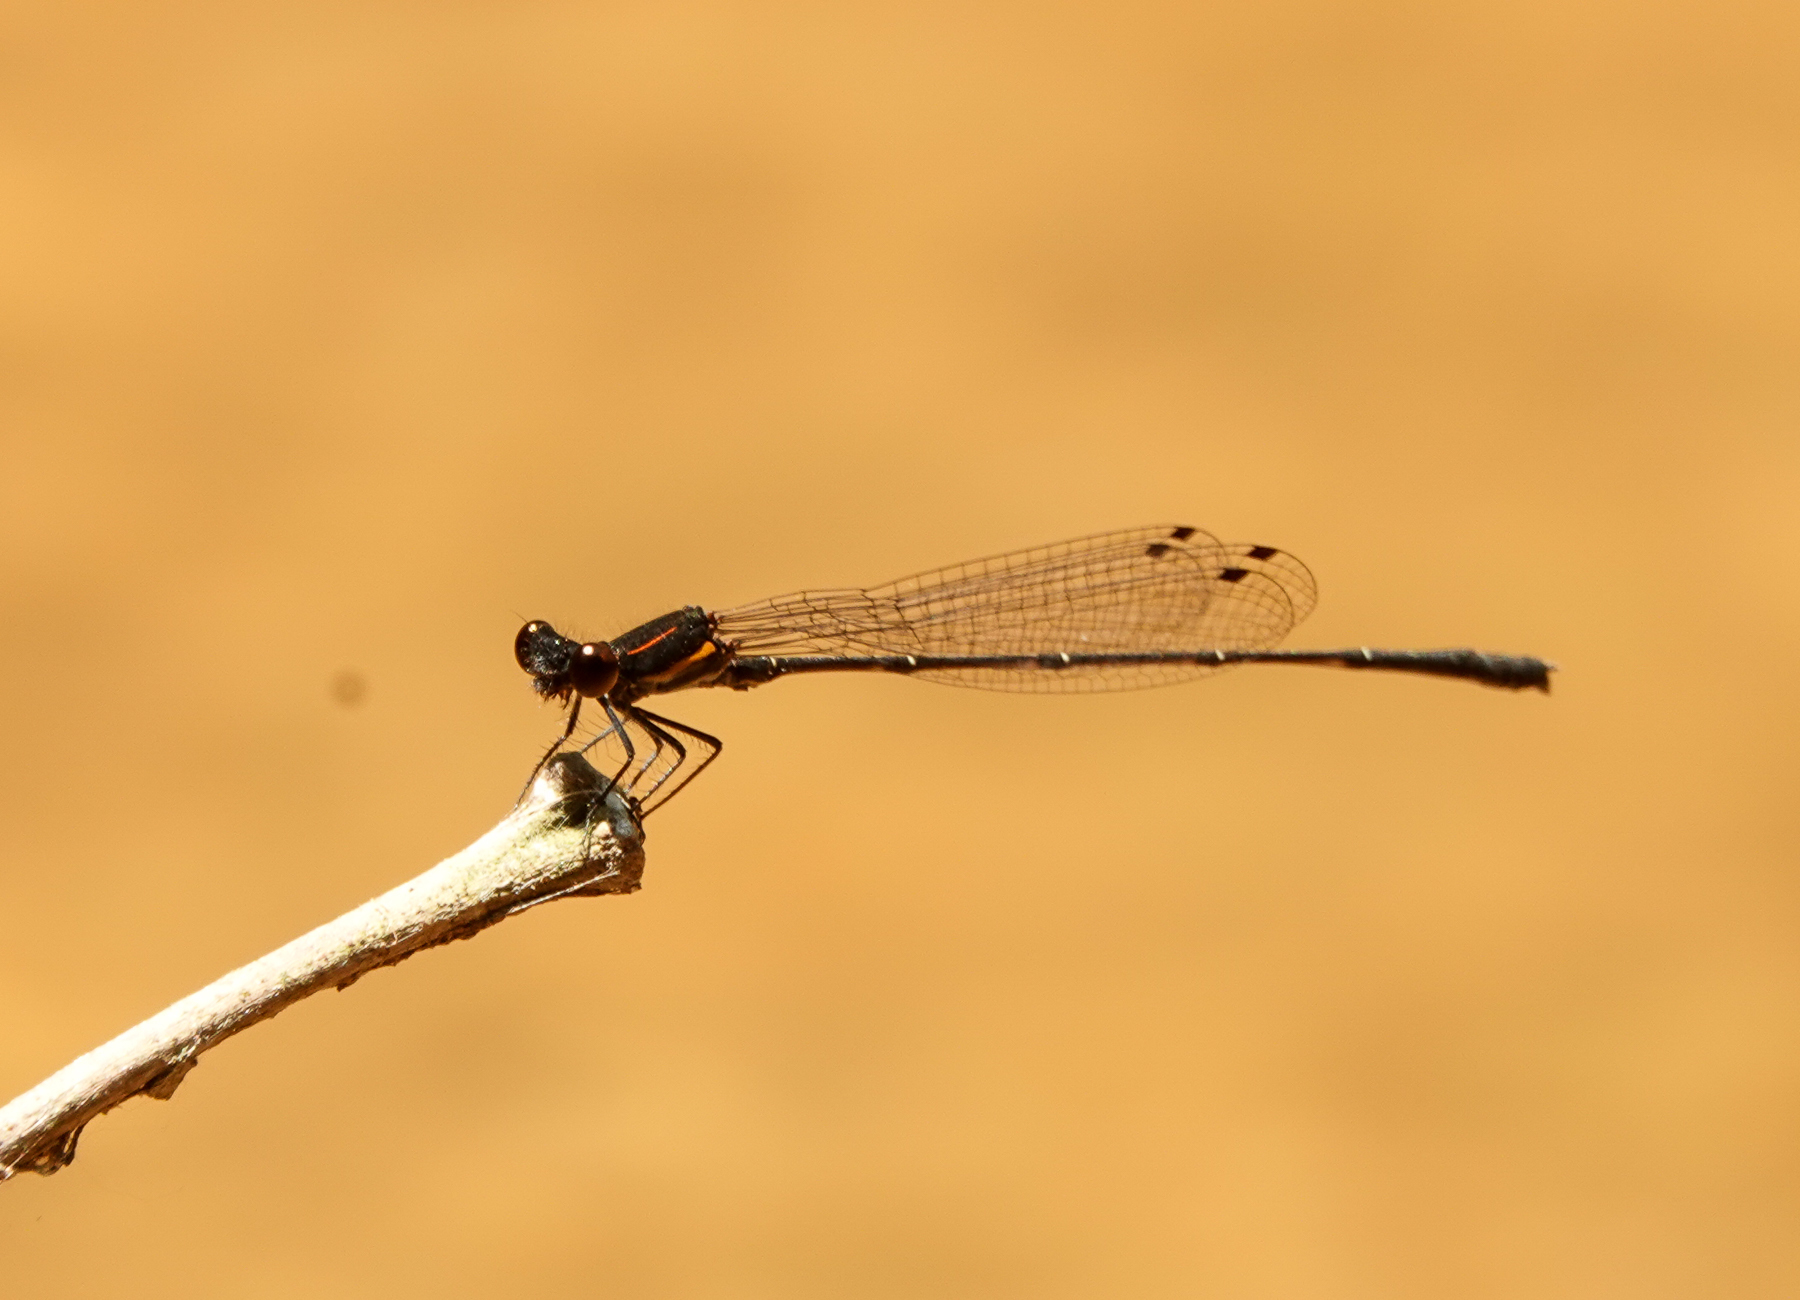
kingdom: Animalia
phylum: Arthropoda
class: Insecta
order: Odonata
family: Platycnemididae
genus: Prodasineura
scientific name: Prodasineura verticalis
